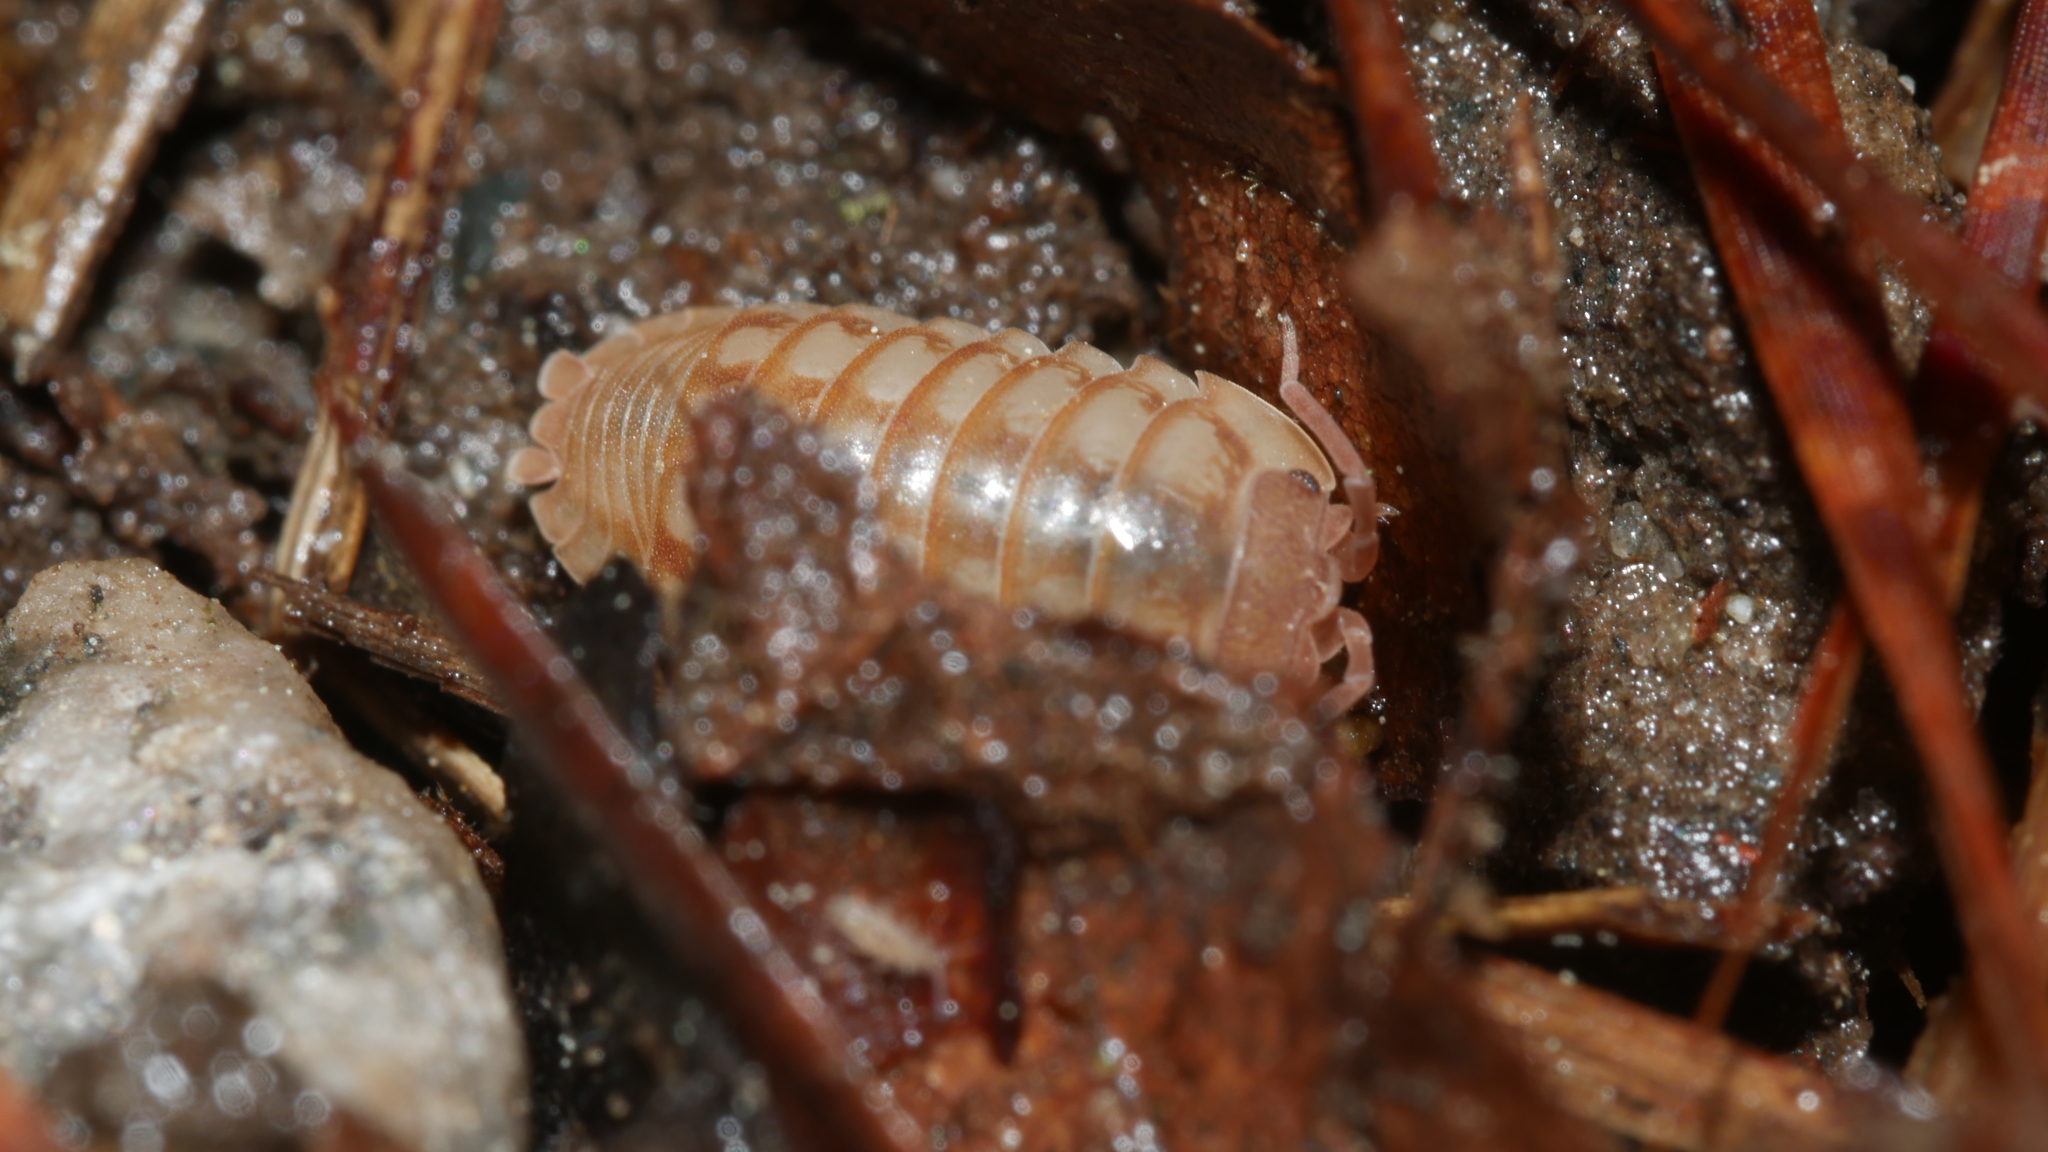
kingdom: Animalia
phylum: Arthropoda
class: Malacostraca
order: Isopoda
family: Armadillidiidae
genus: Armadillidium
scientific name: Armadillidium nasatum
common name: Isopod
